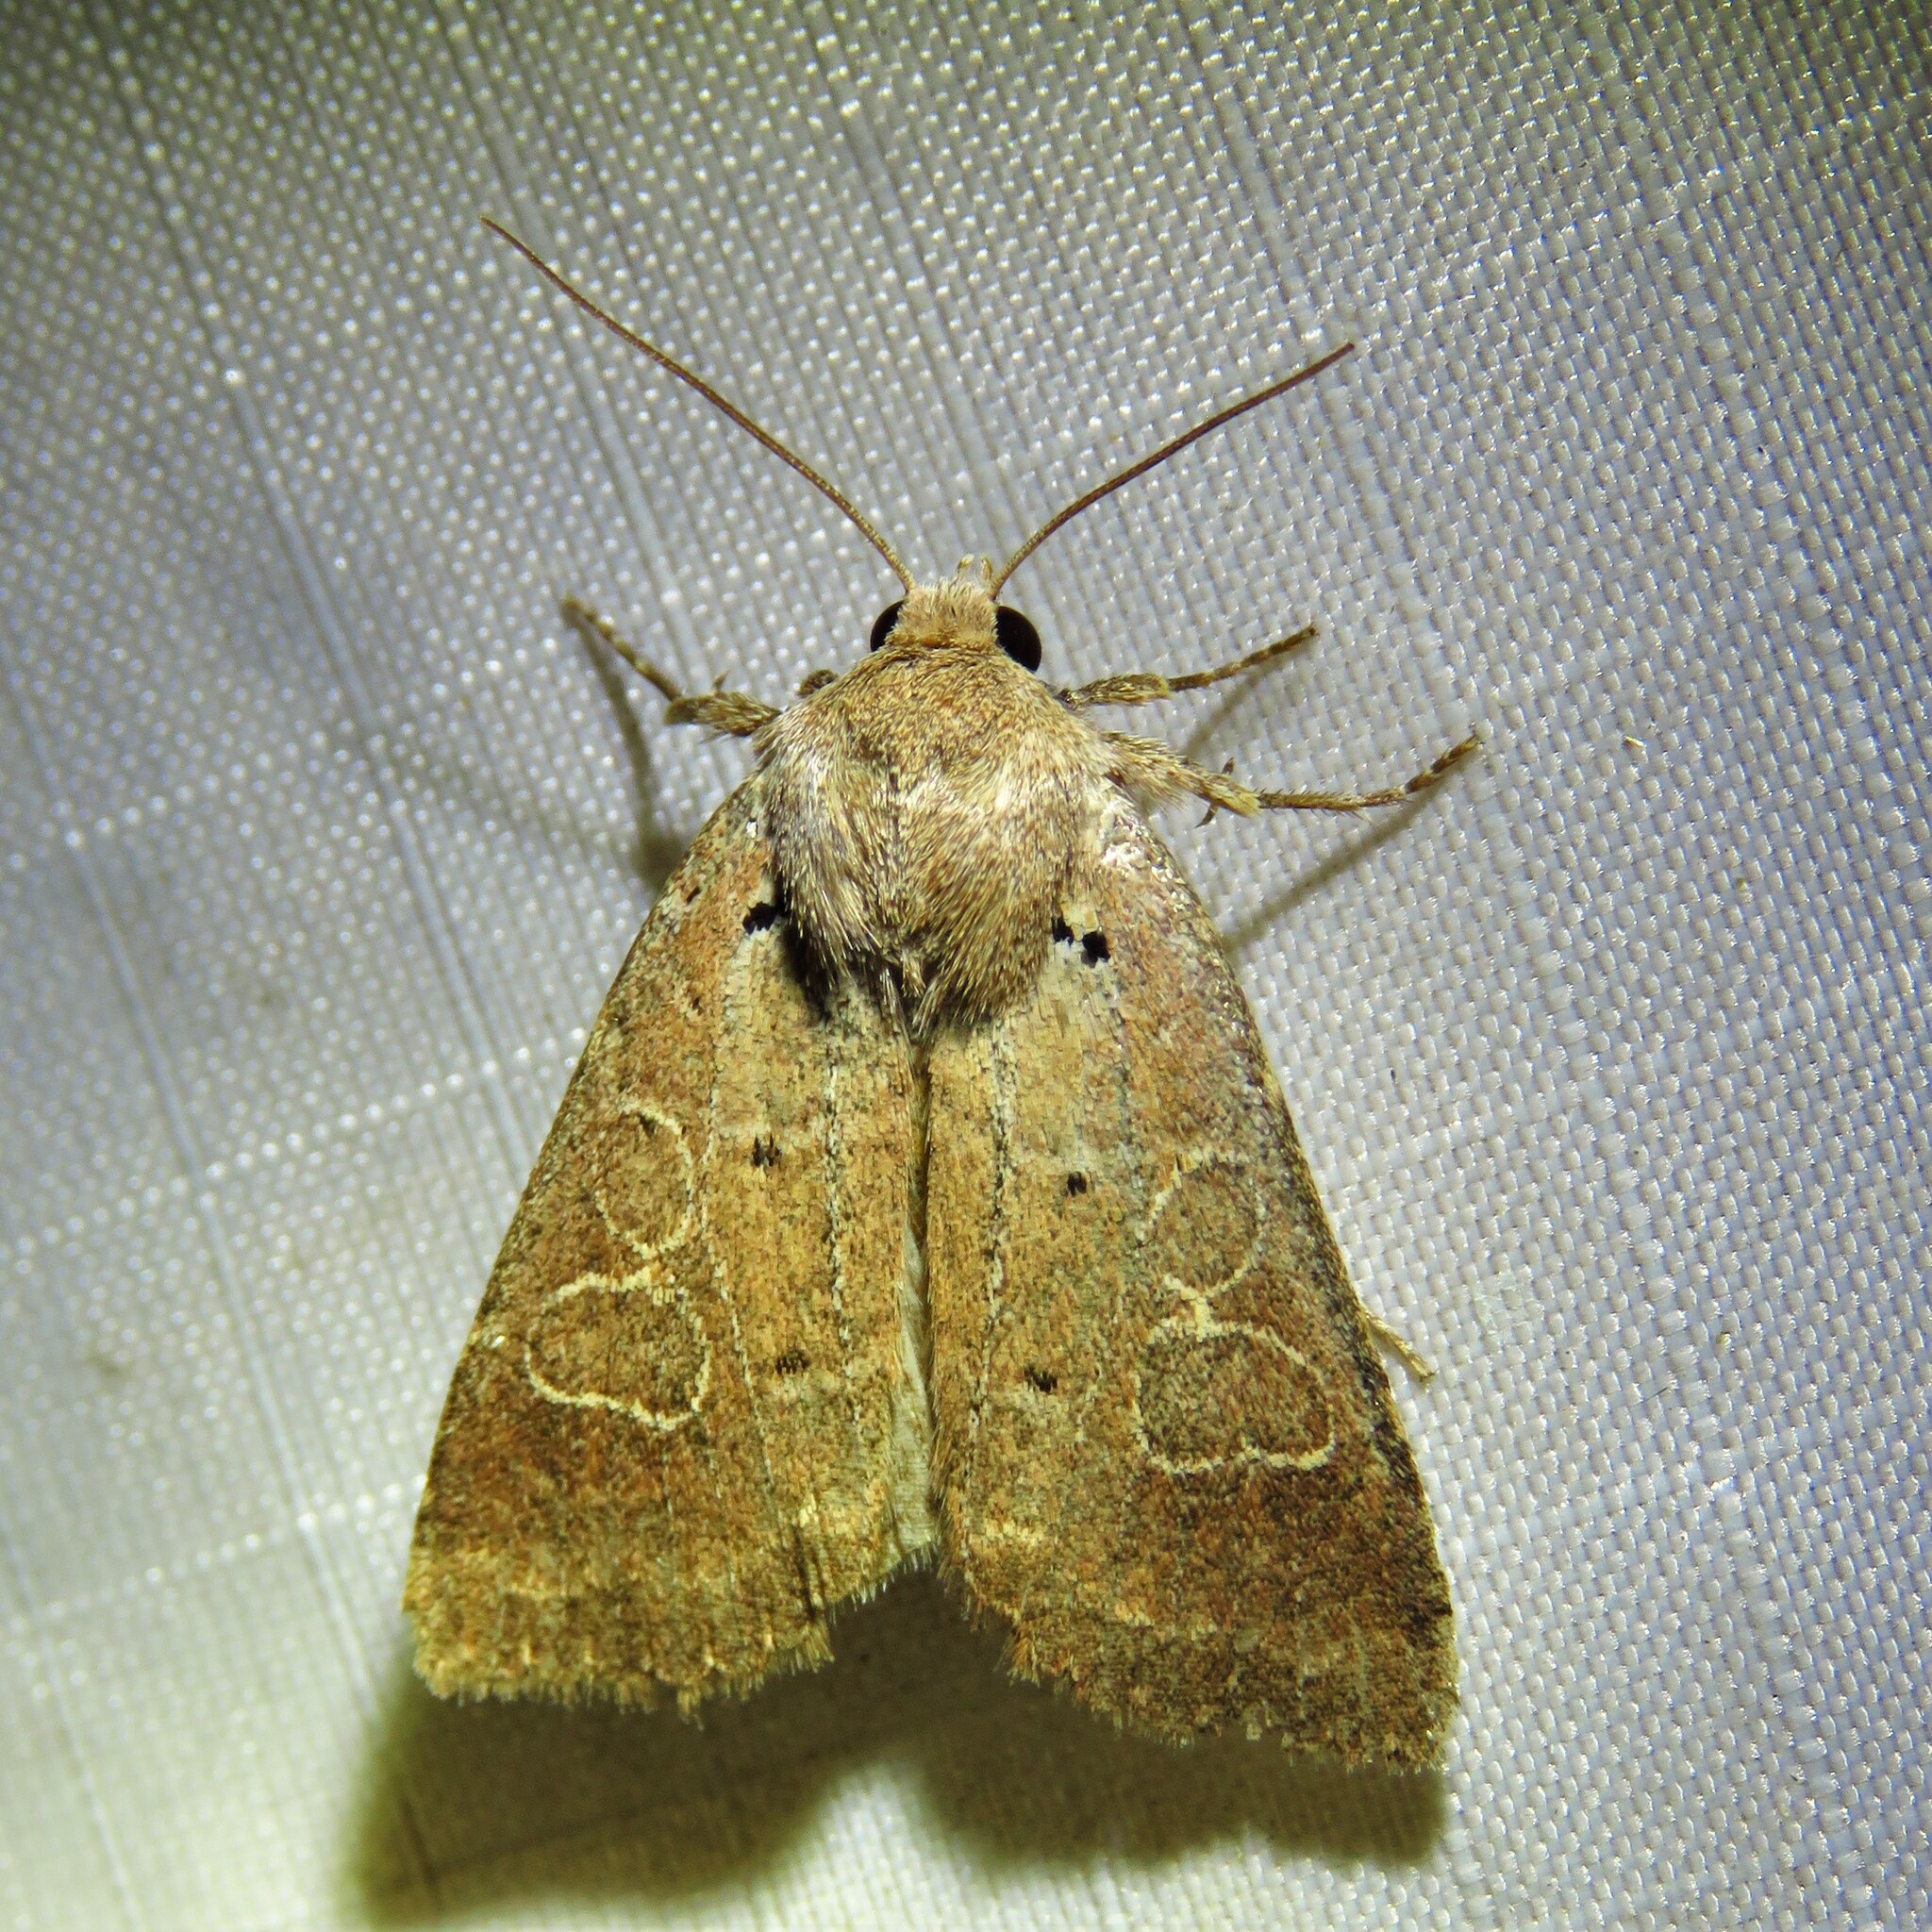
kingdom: Animalia
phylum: Arthropoda
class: Insecta
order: Lepidoptera
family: Noctuidae
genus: Kocakina
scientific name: Kocakina fidelis
